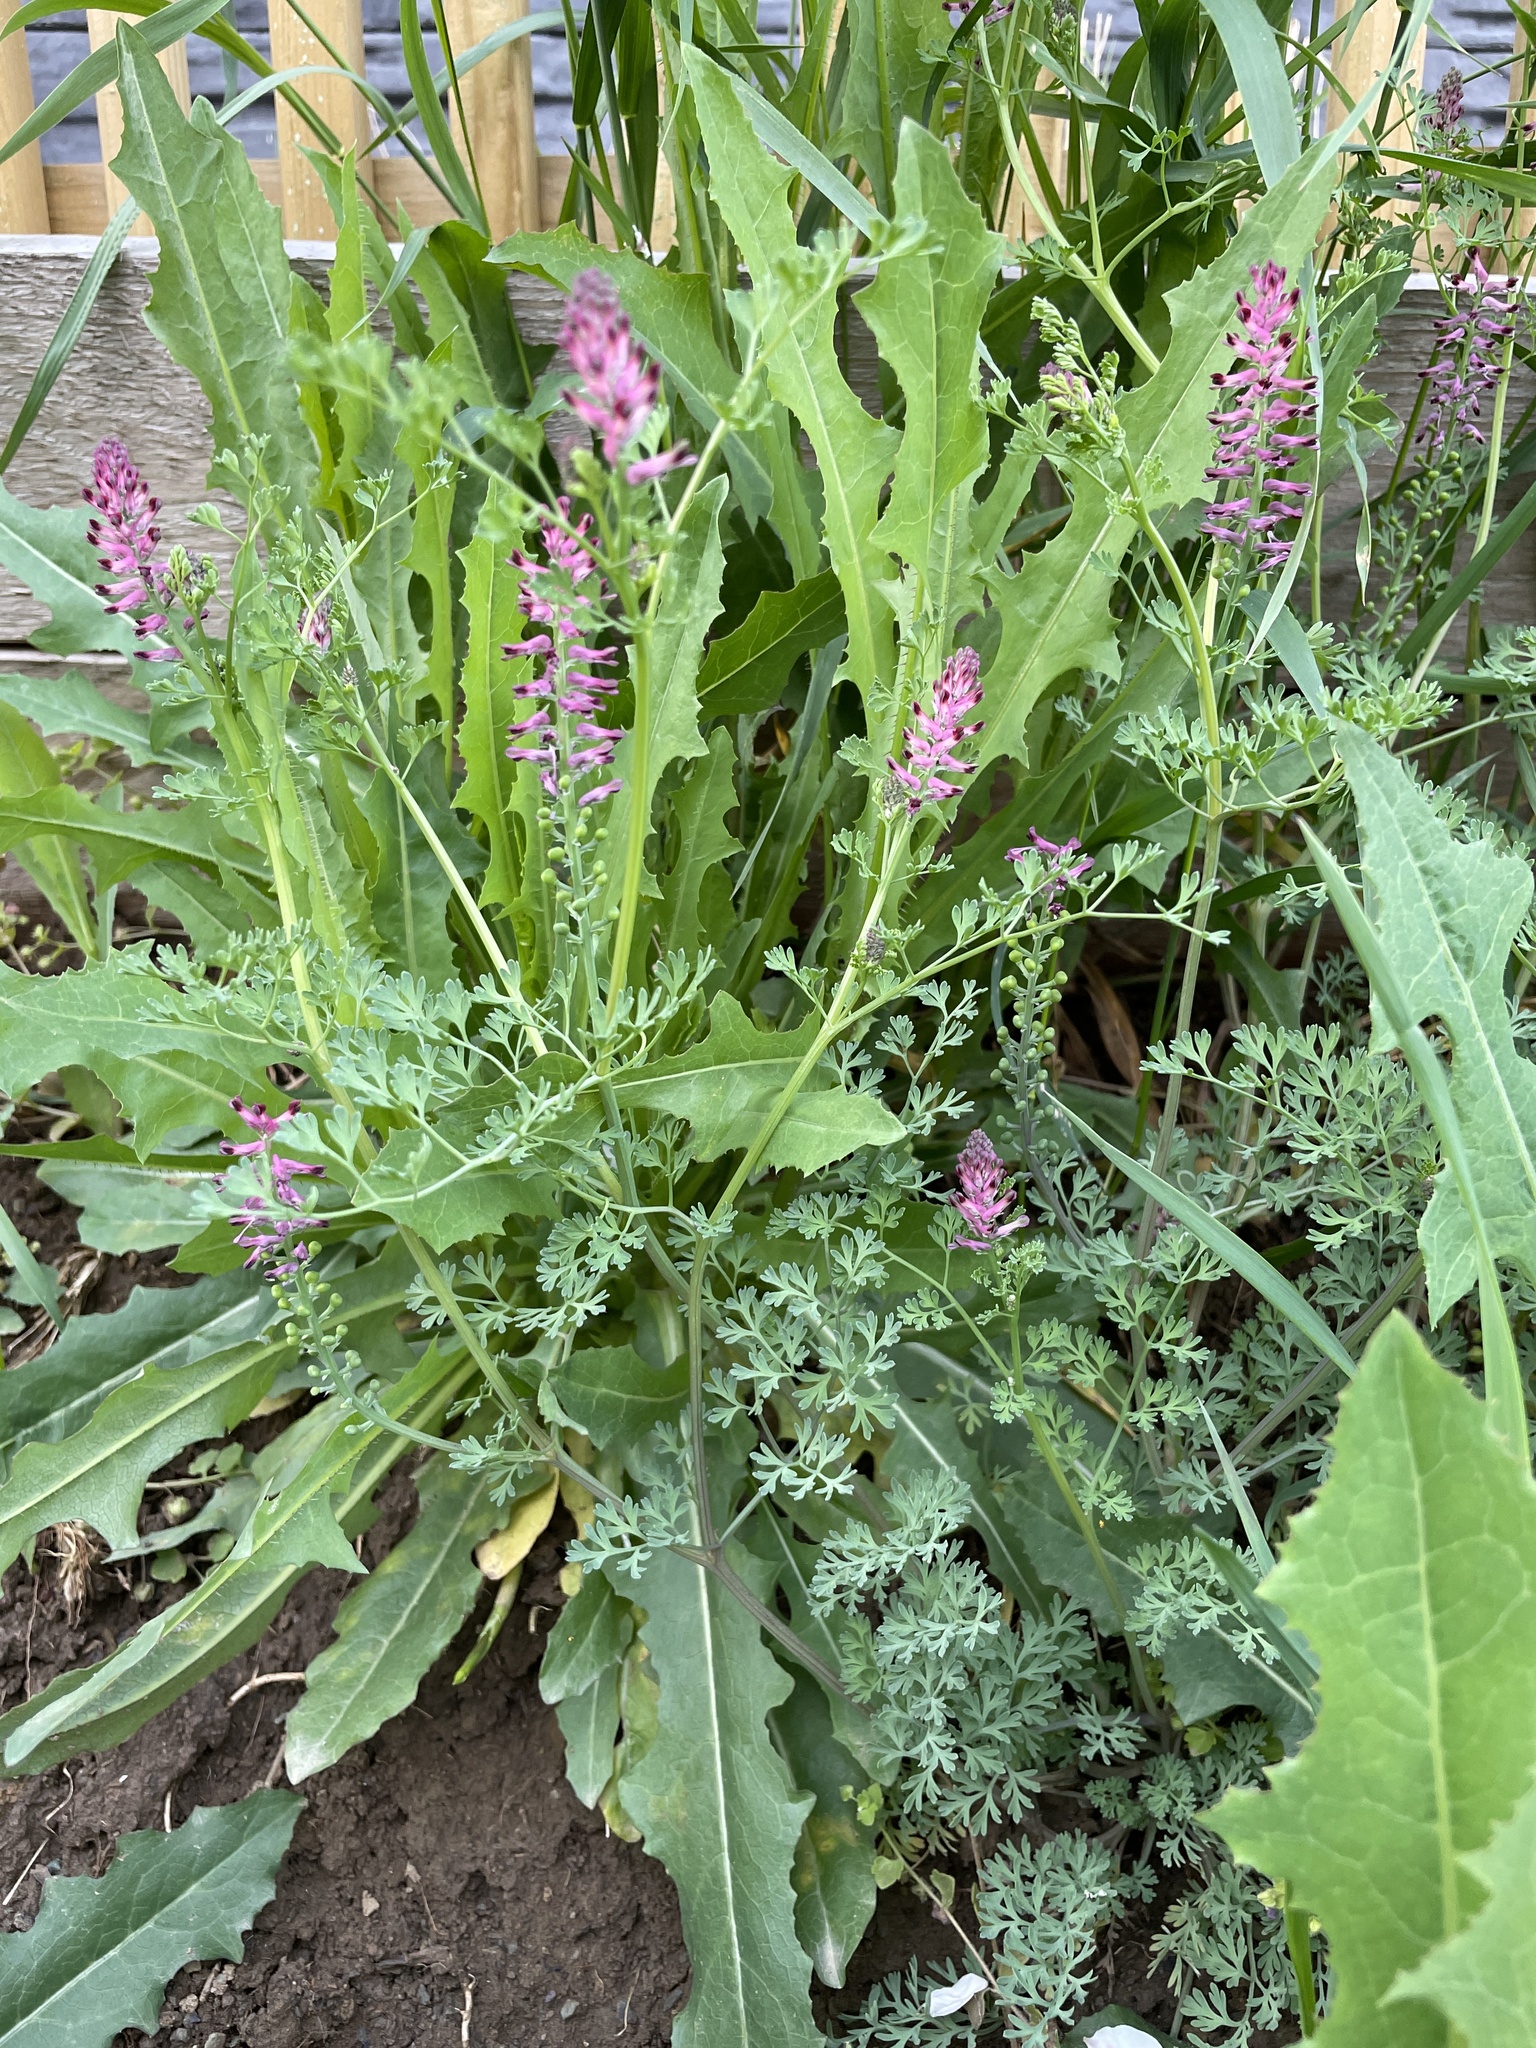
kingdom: Plantae
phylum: Tracheophyta
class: Magnoliopsida
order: Ranunculales
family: Papaveraceae
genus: Fumaria
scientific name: Fumaria officinalis
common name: Common fumitory
